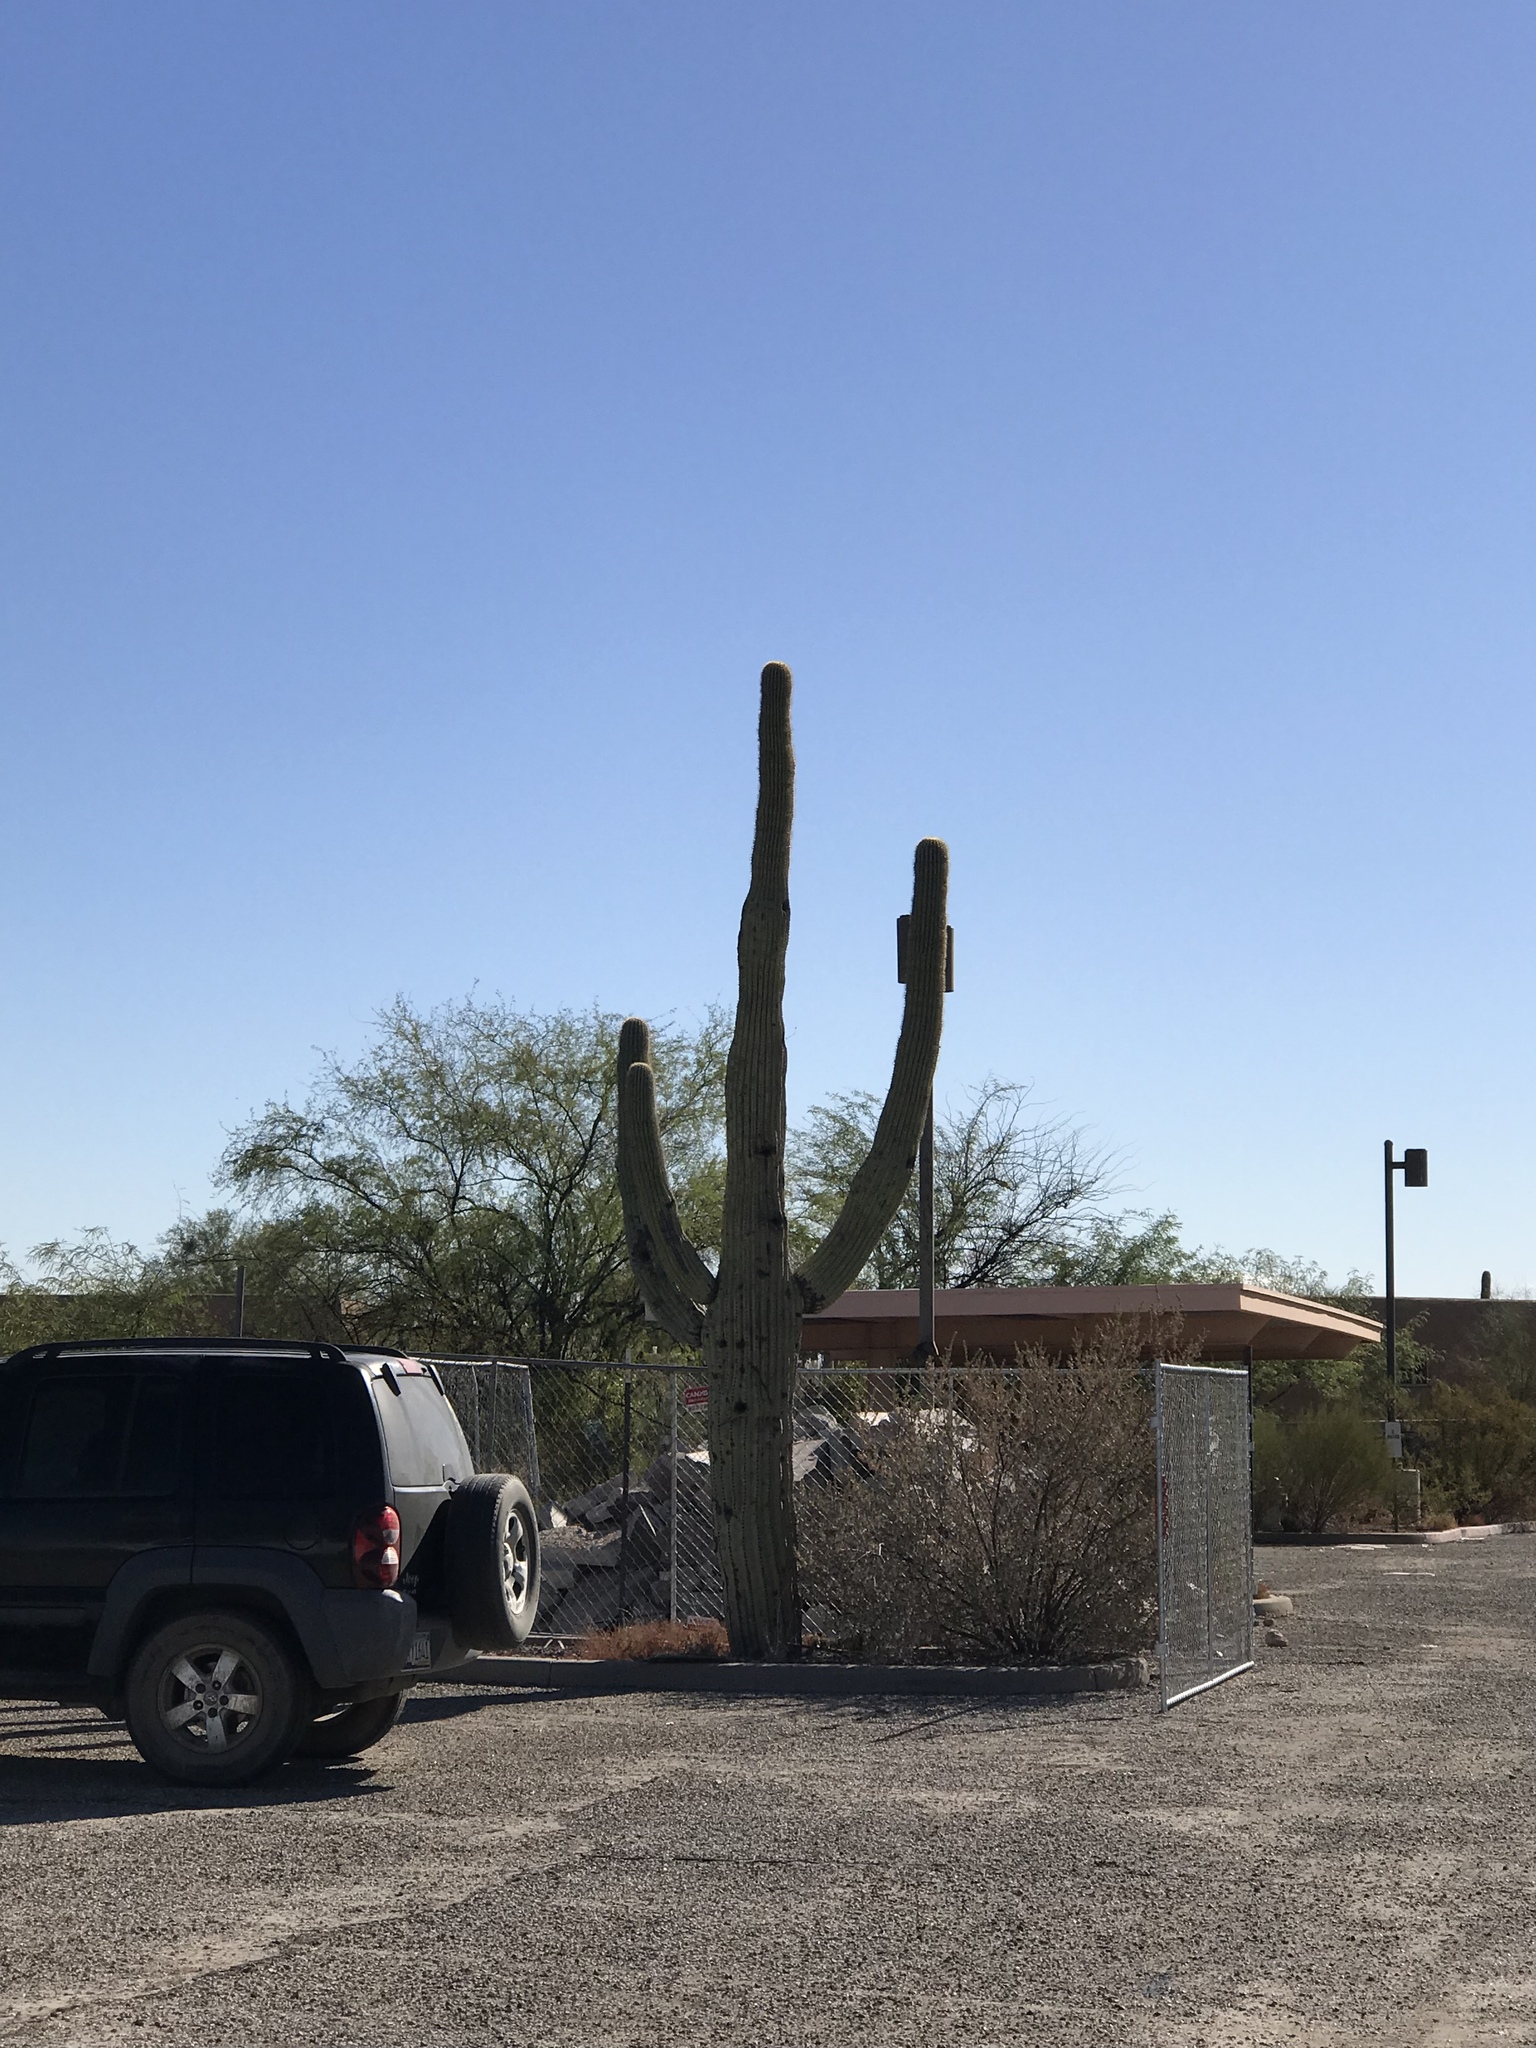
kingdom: Plantae
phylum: Tracheophyta
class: Magnoliopsida
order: Caryophyllales
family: Cactaceae
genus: Carnegiea
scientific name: Carnegiea gigantea
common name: Saguaro
